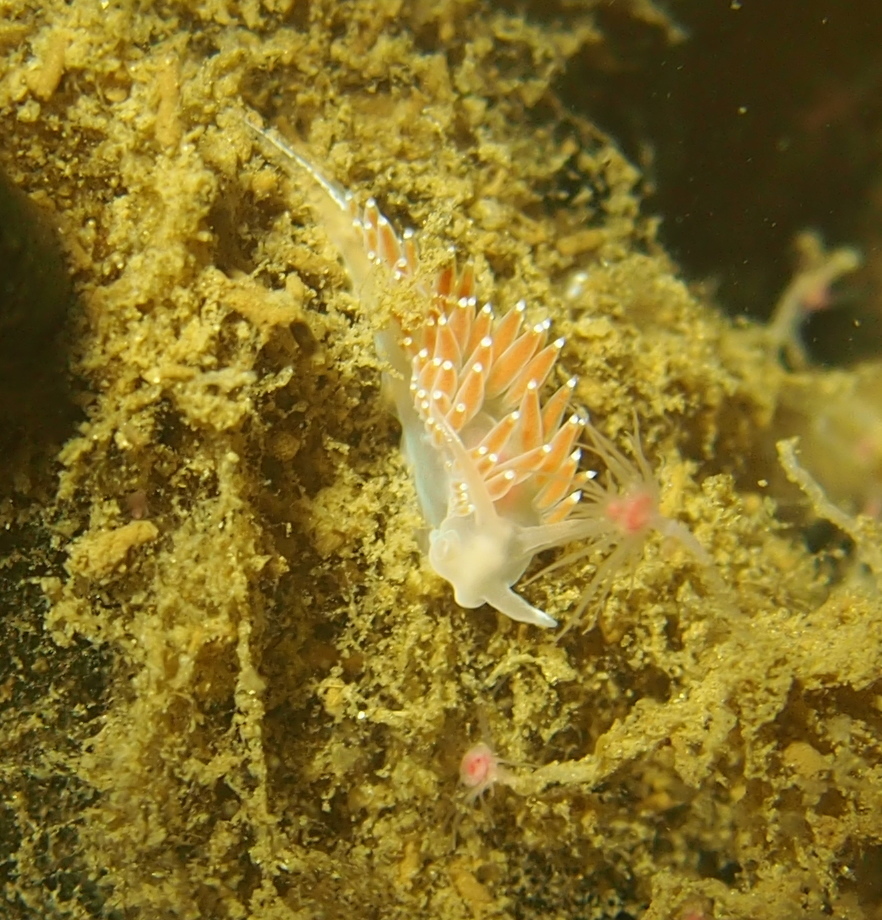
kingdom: Animalia
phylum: Mollusca
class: Gastropoda
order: Nudibranchia
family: Coryphellidae
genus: Coryphella
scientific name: Coryphella verrucosa
